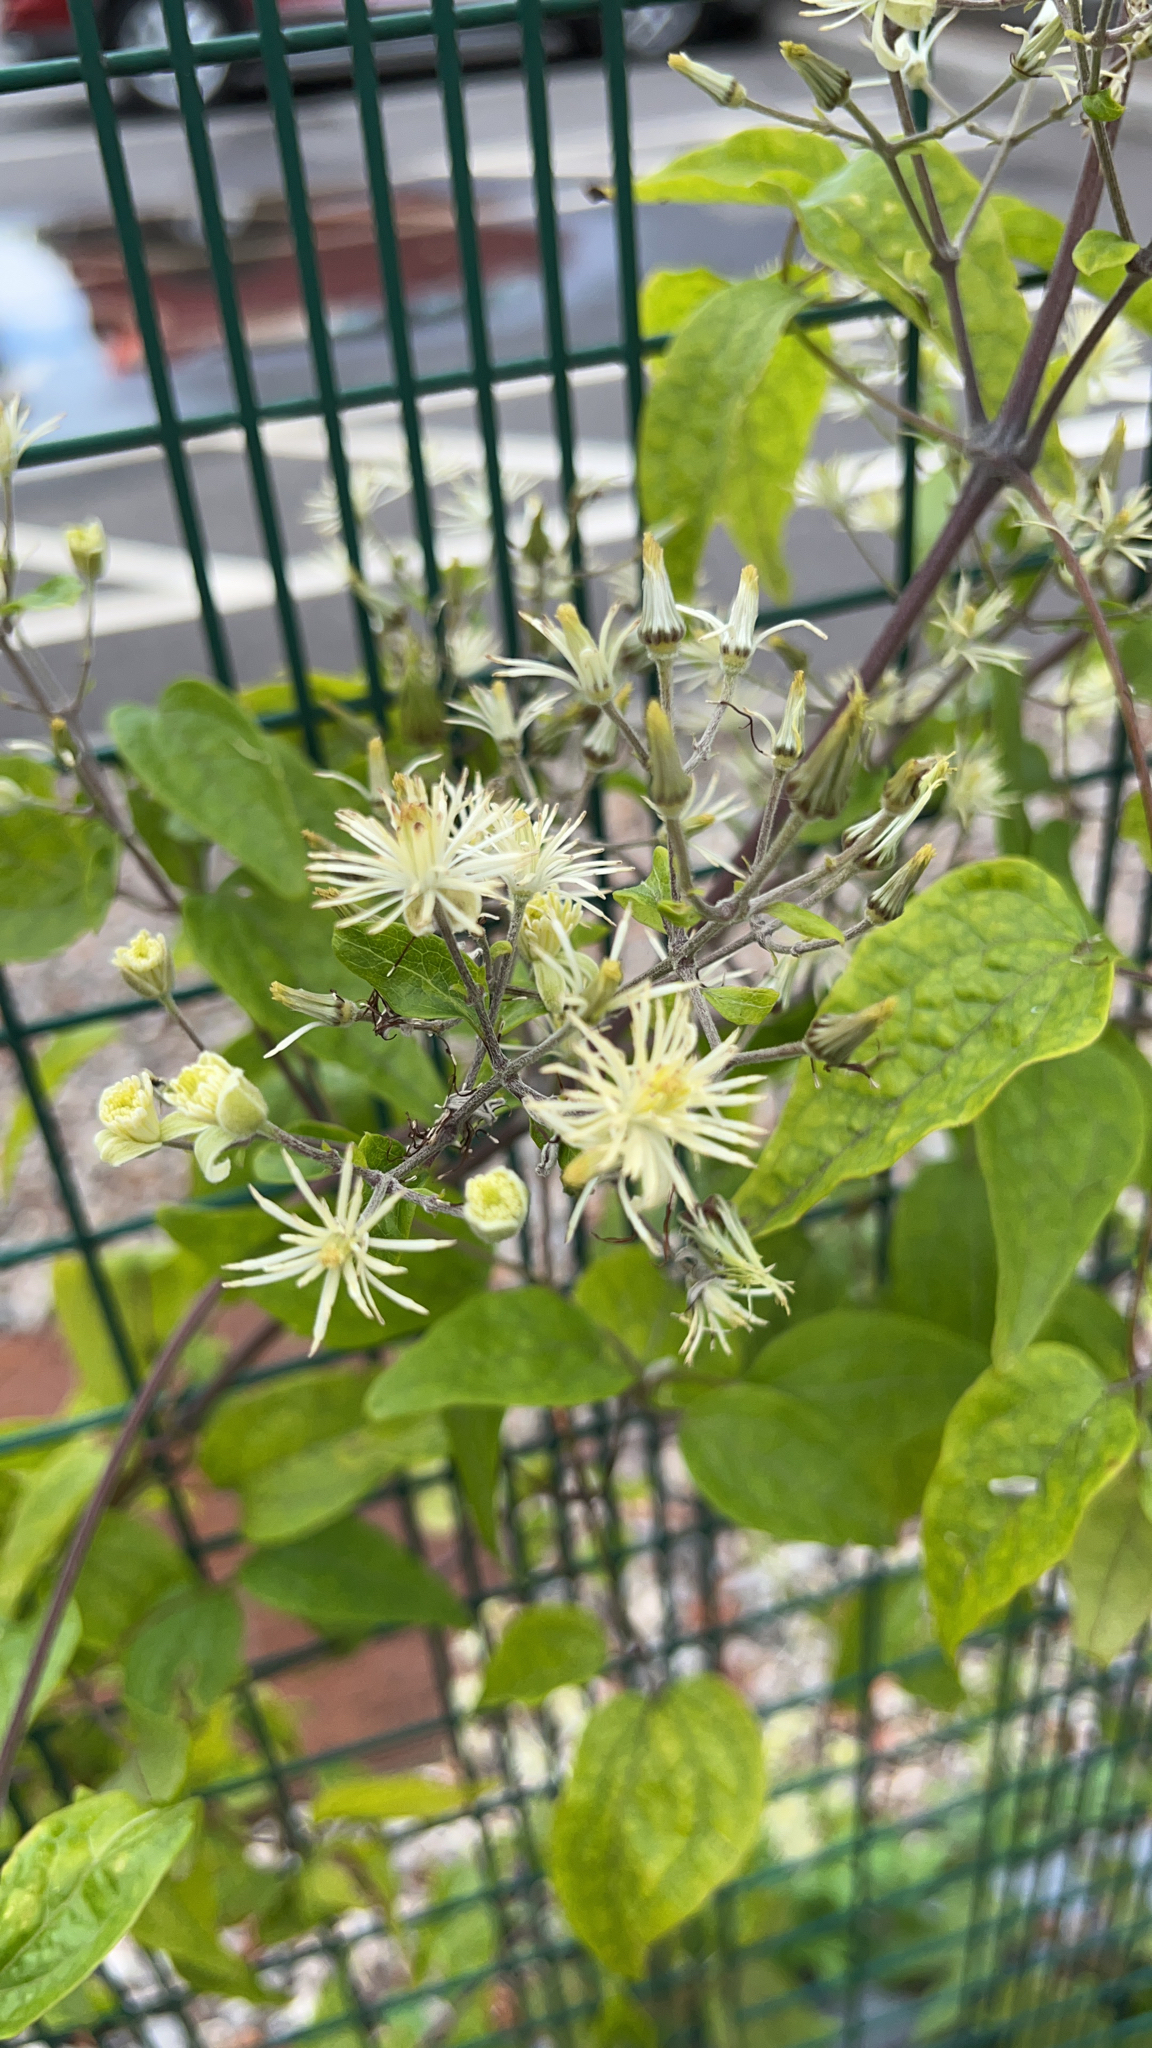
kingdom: Plantae
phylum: Tracheophyta
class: Magnoliopsida
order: Ranunculales
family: Ranunculaceae
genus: Clematis
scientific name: Clematis vitalba
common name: Evergreen clematis
